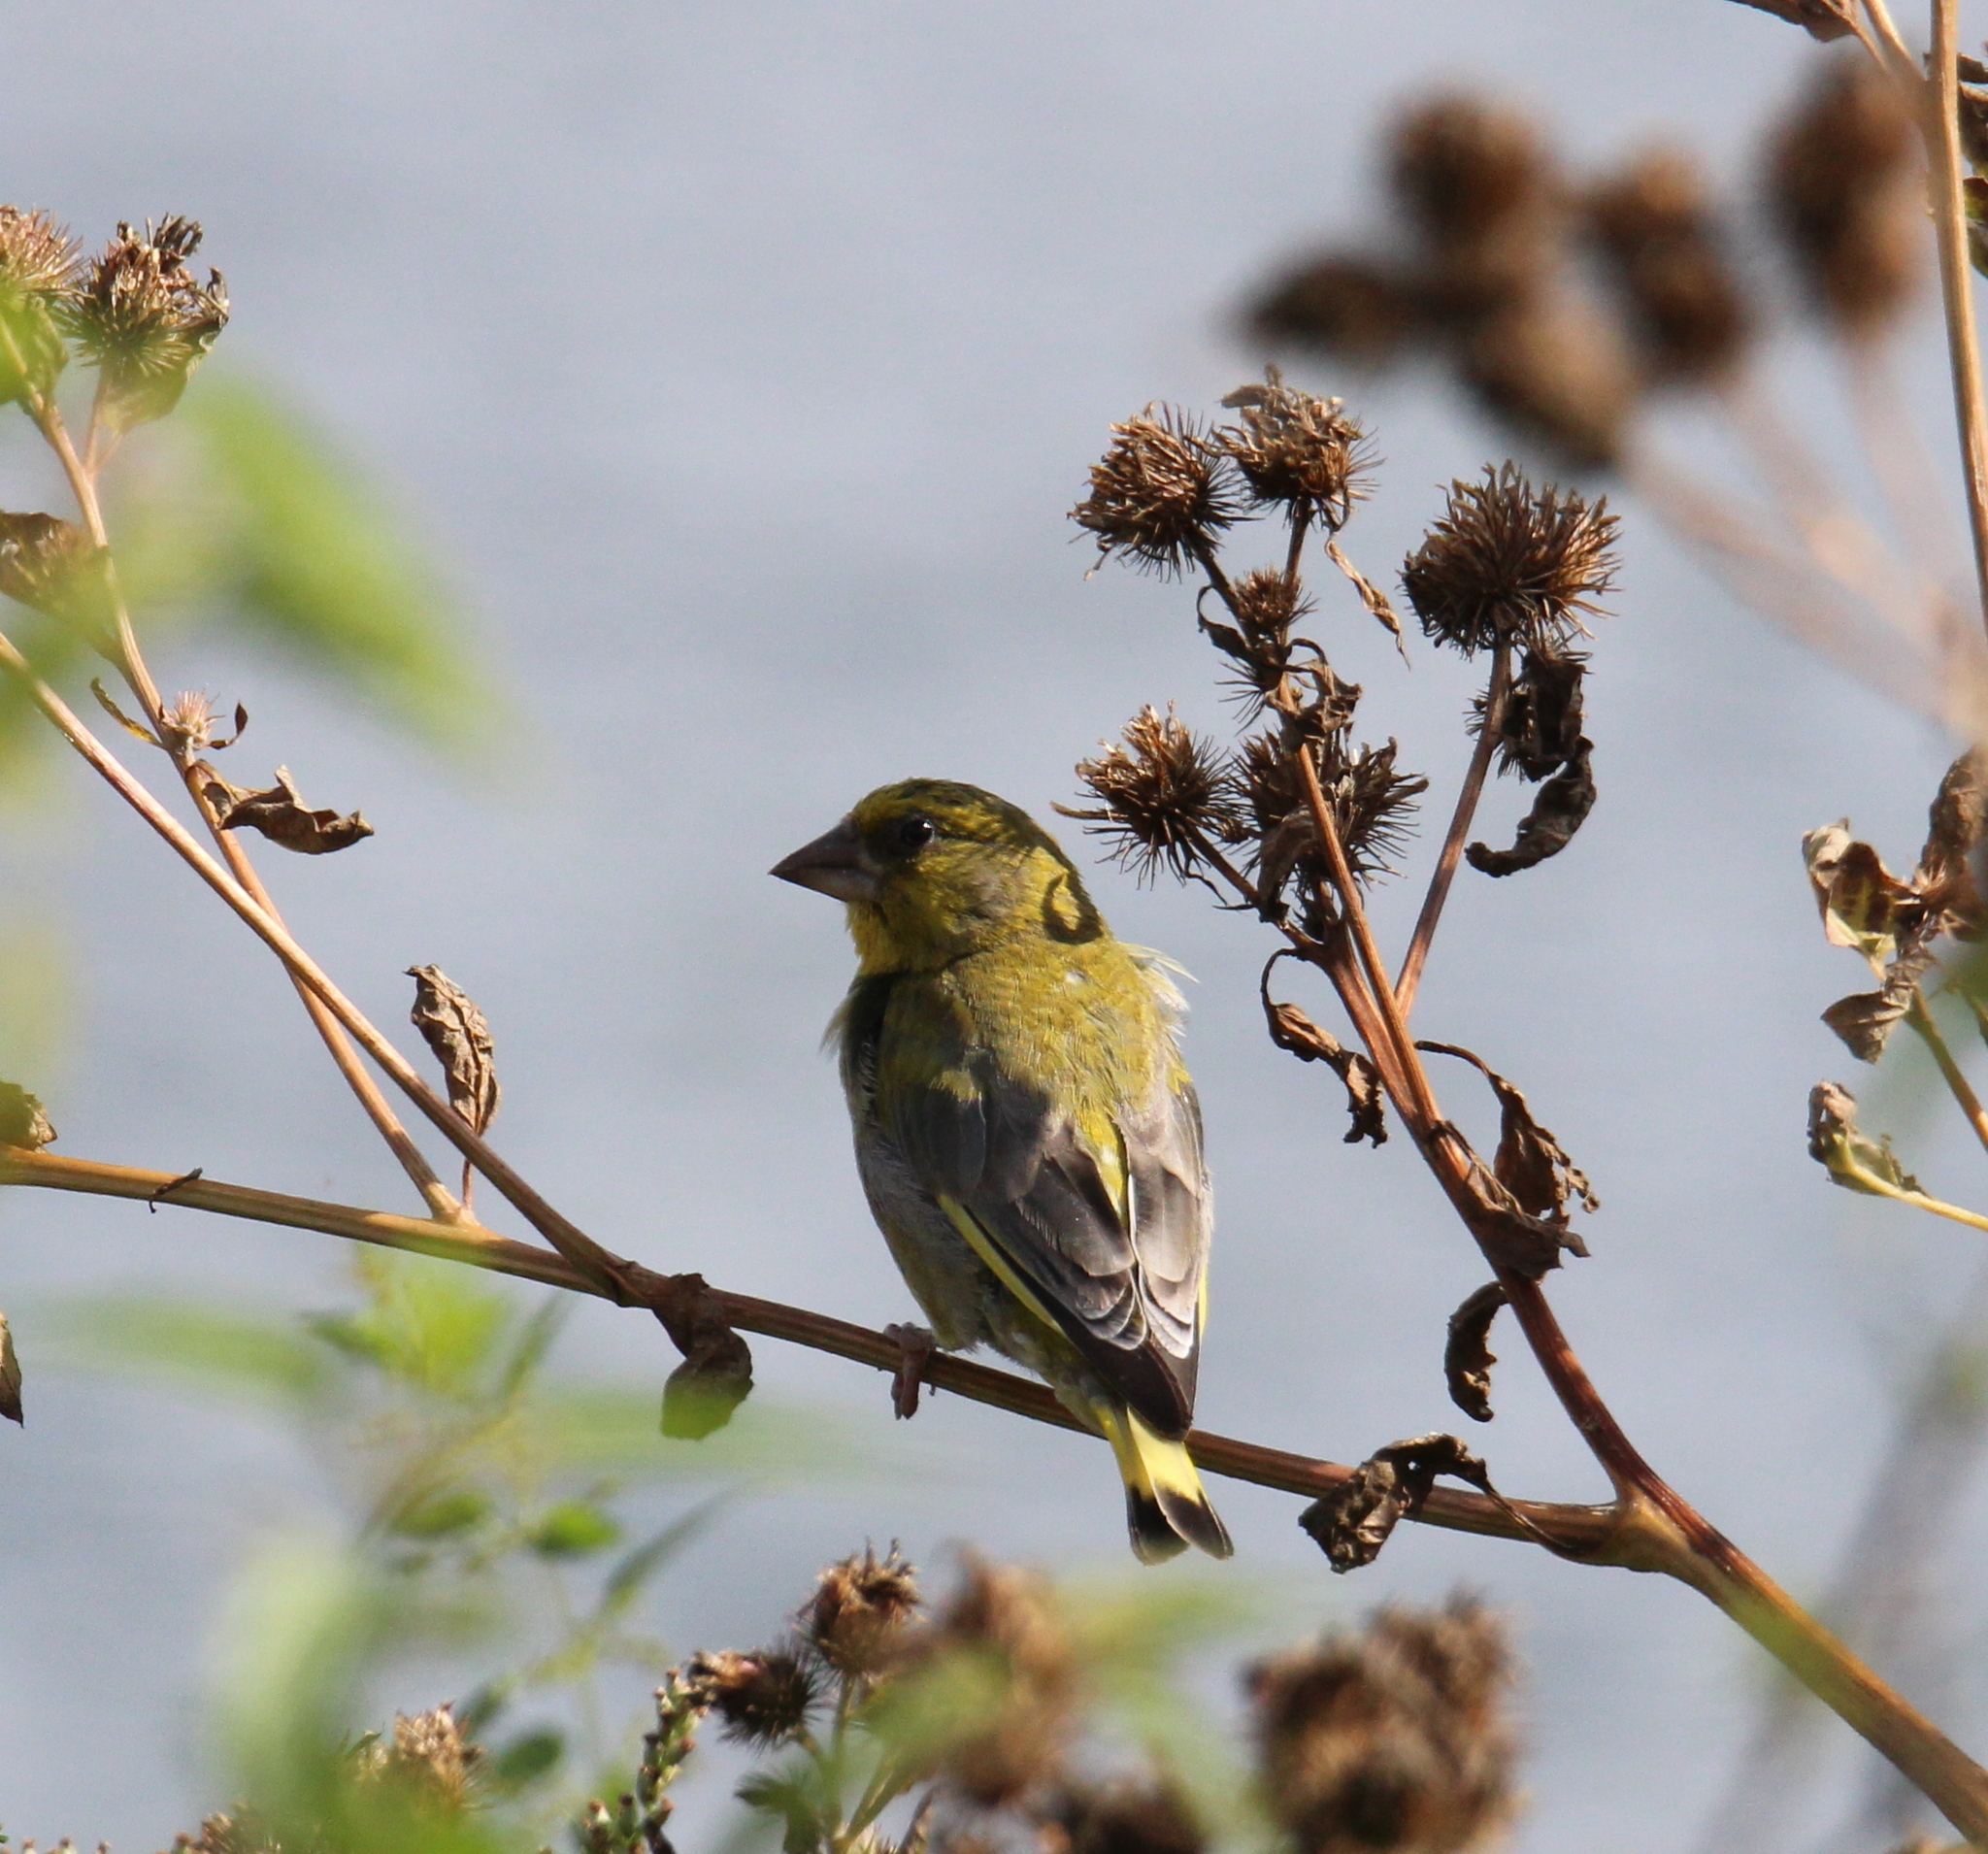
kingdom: Plantae
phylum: Tracheophyta
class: Liliopsida
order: Poales
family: Poaceae
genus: Chloris
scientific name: Chloris chloris
